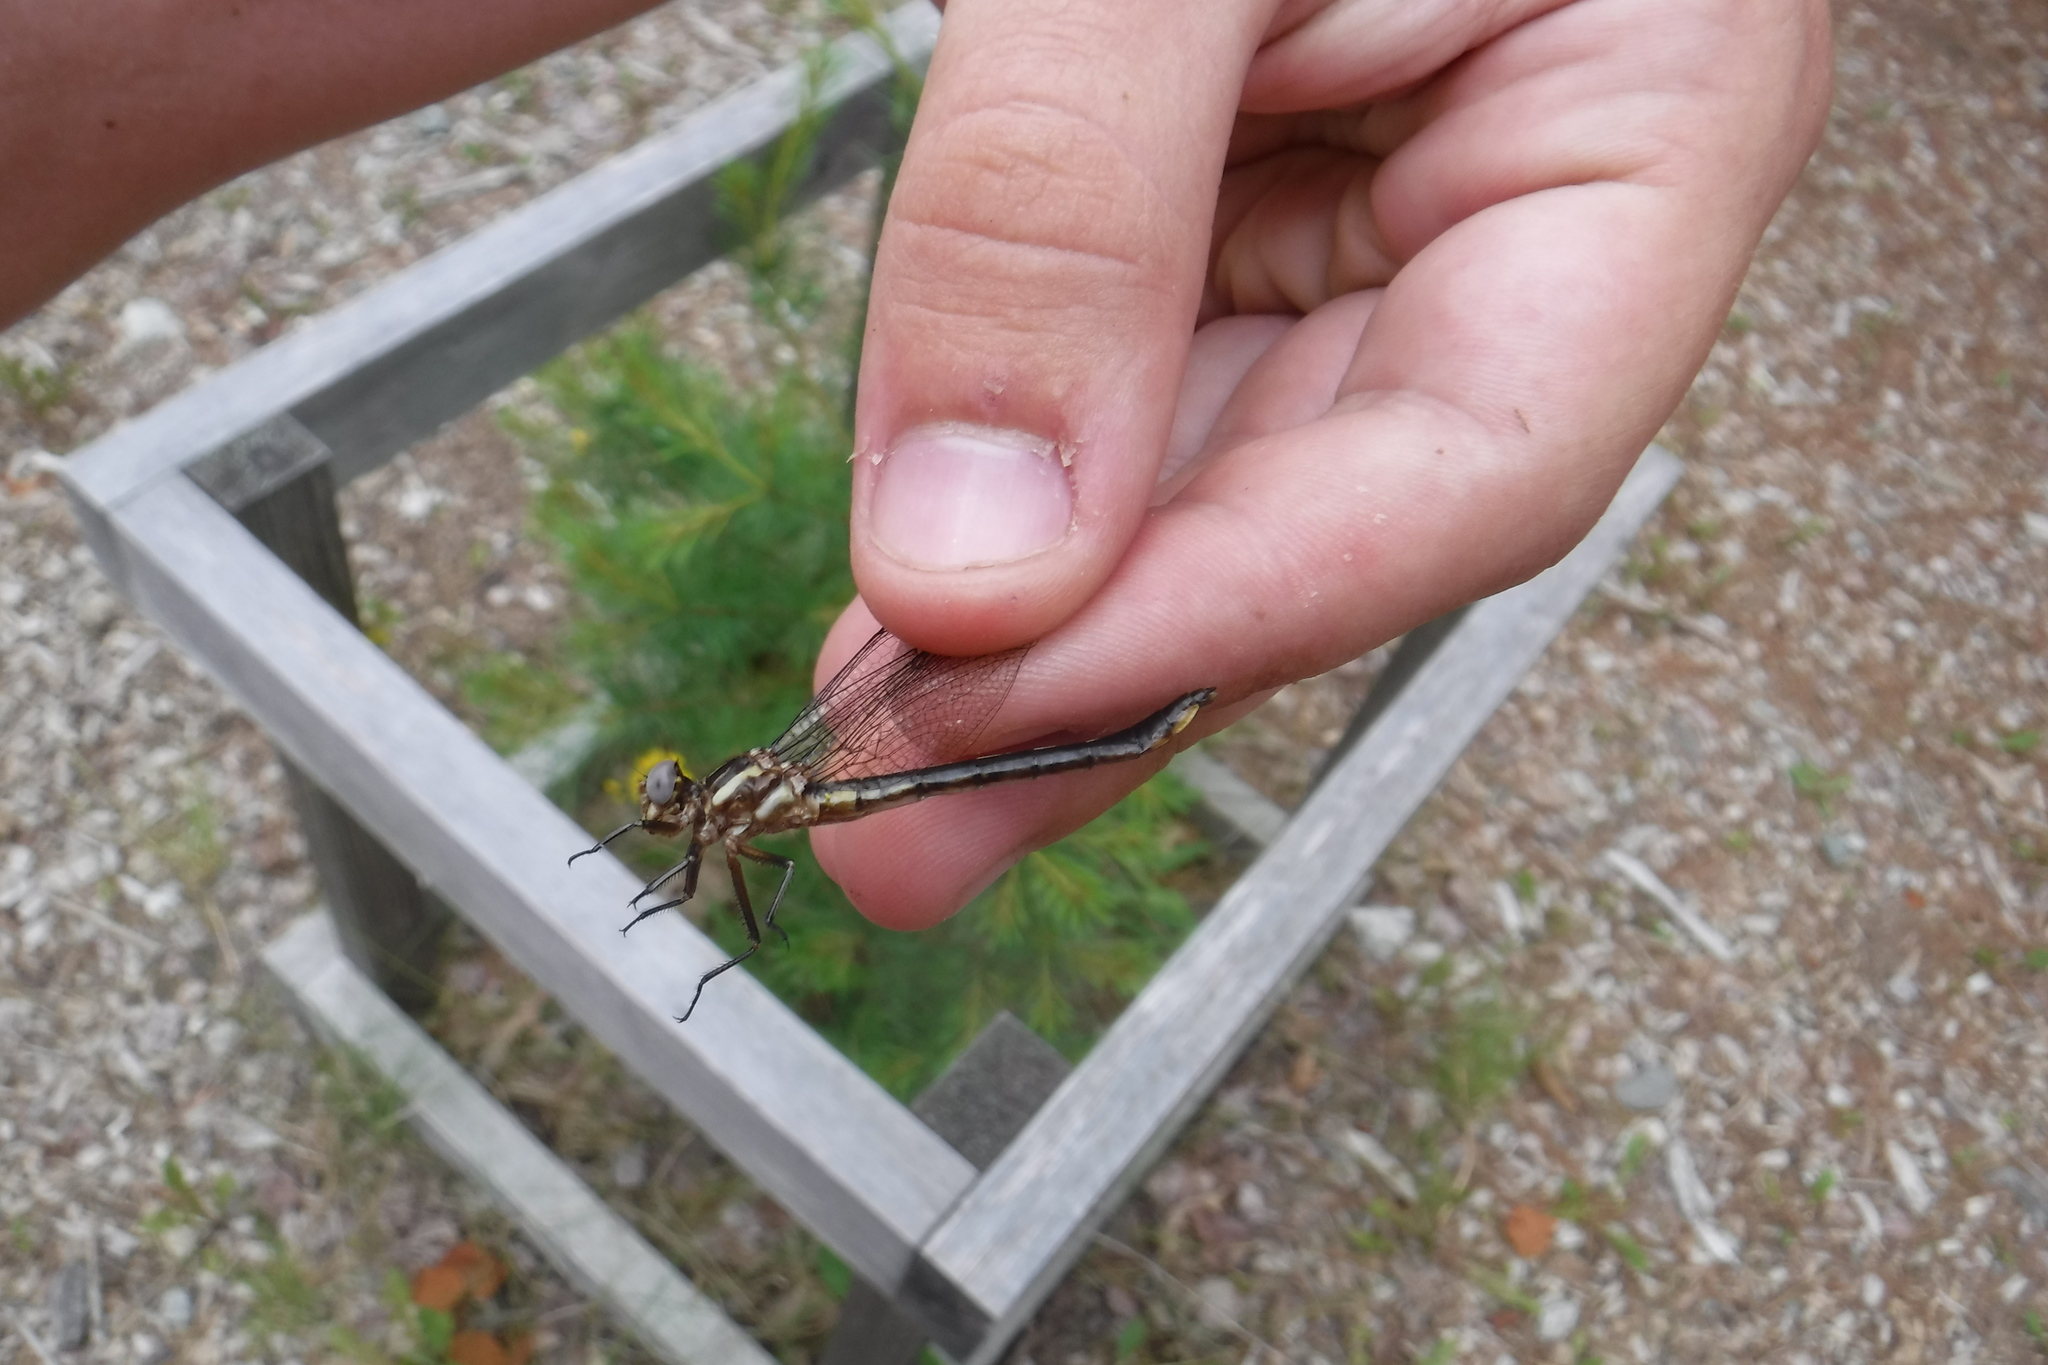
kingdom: Animalia
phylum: Arthropoda
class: Insecta
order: Odonata
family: Gomphidae
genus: Phanogomphus
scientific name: Phanogomphus spicatus
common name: Dusky clubtail
